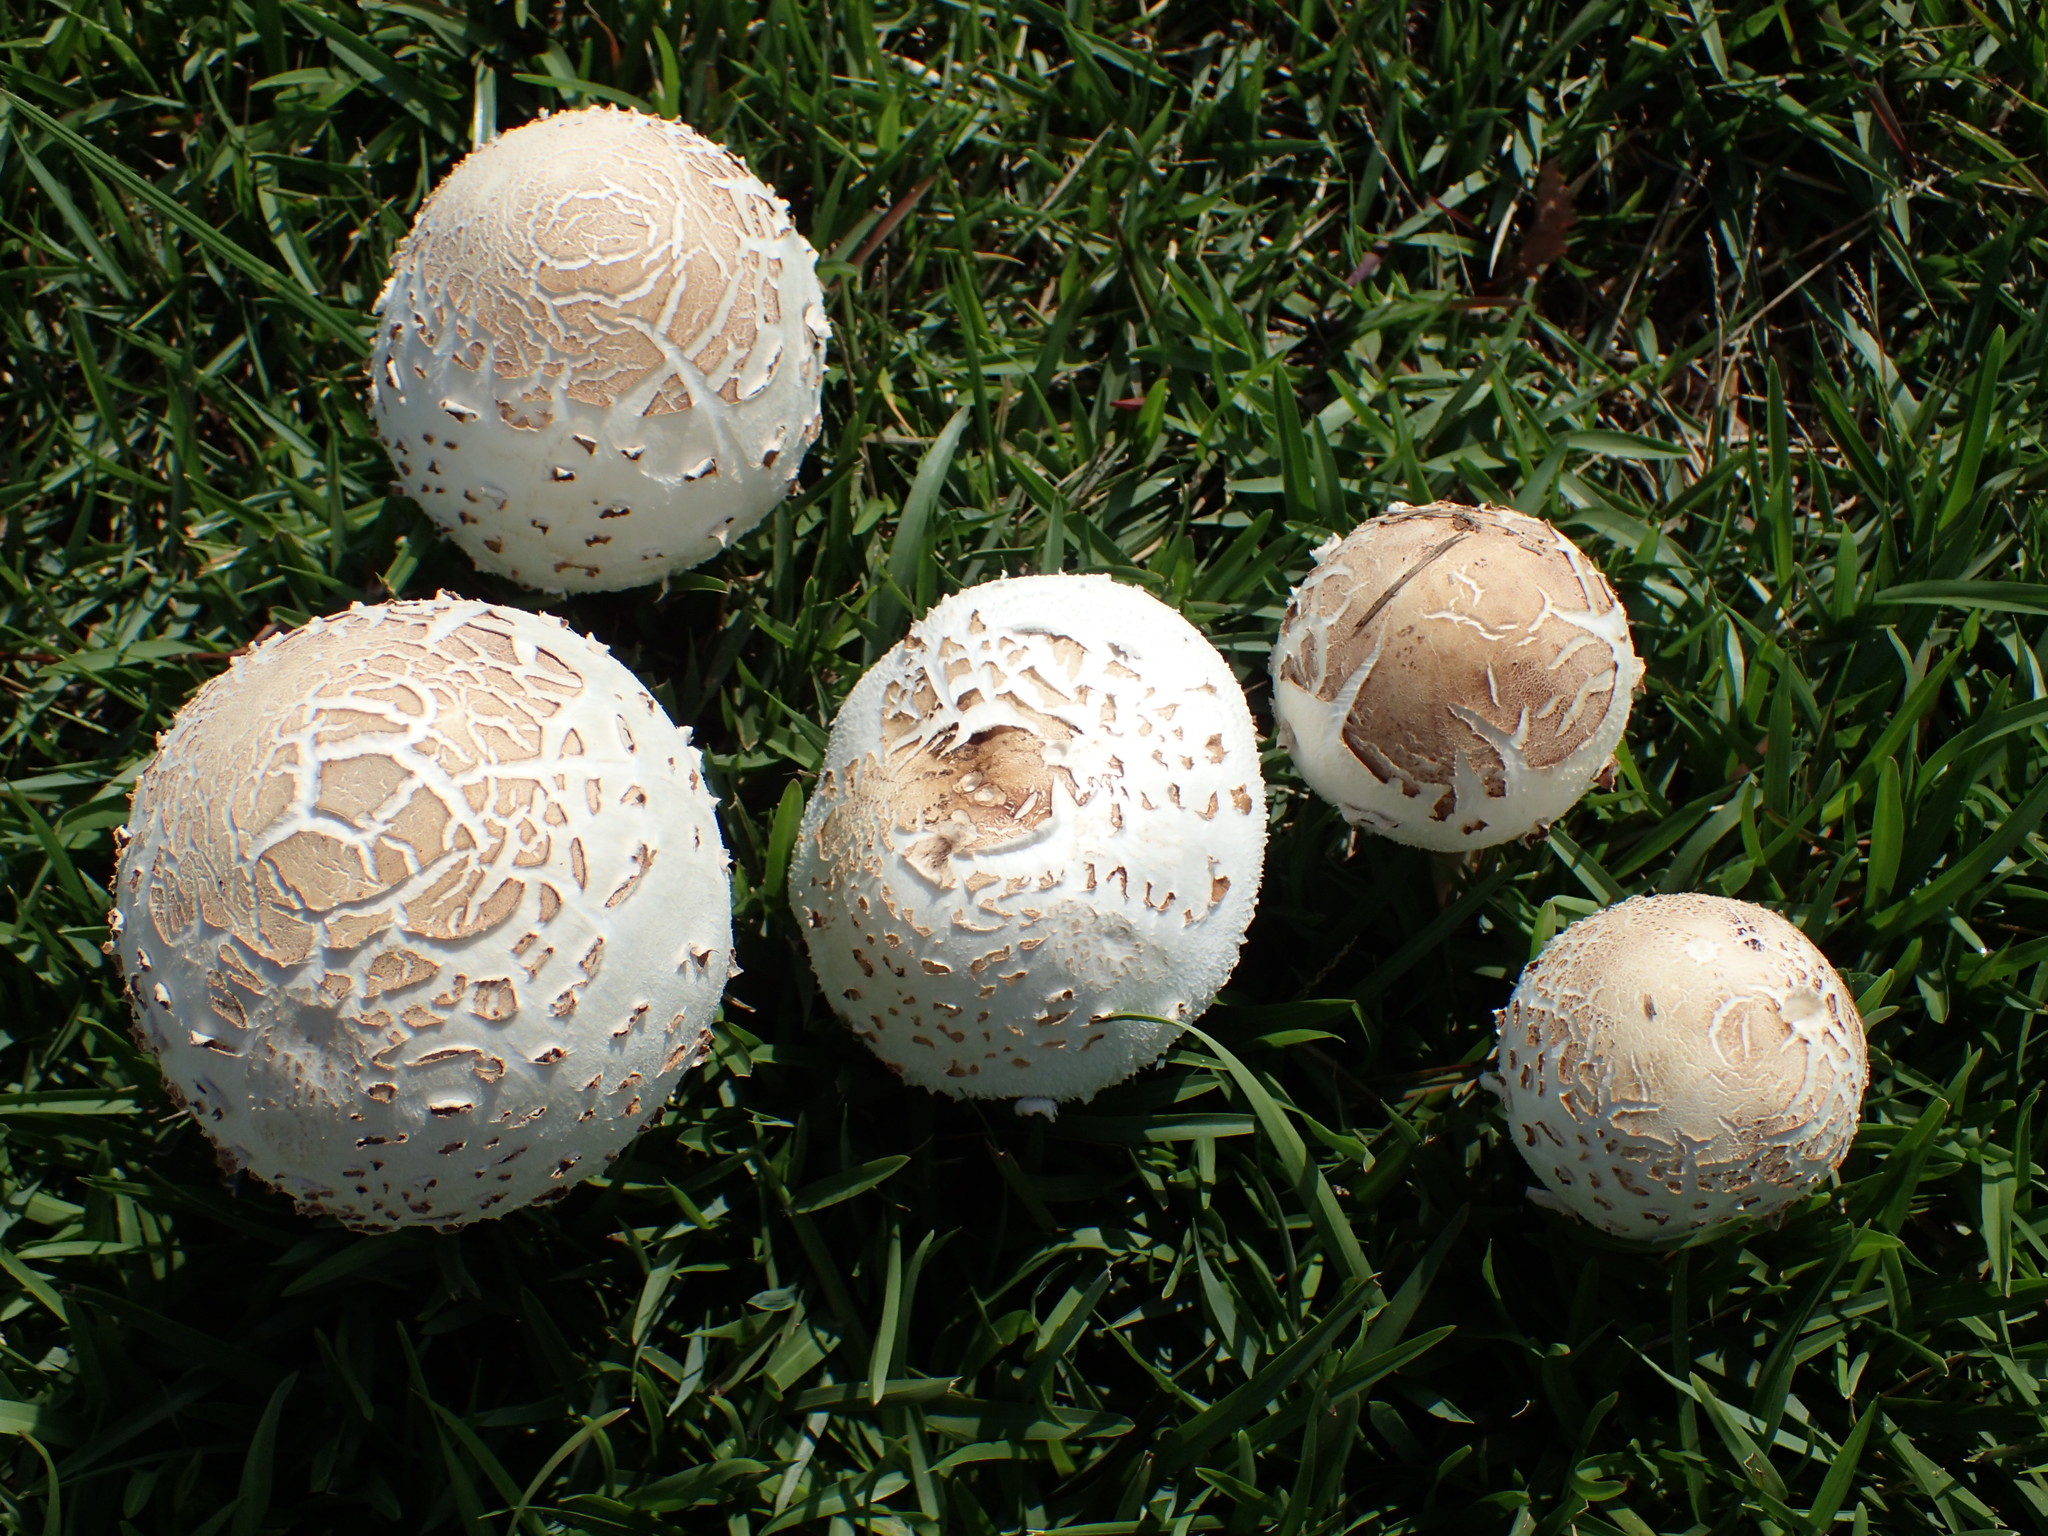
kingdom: Fungi
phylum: Basidiomycota
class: Agaricomycetes
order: Agaricales
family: Agaricaceae
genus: Chlorophyllum
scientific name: Chlorophyllum molybdites
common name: False parasol
